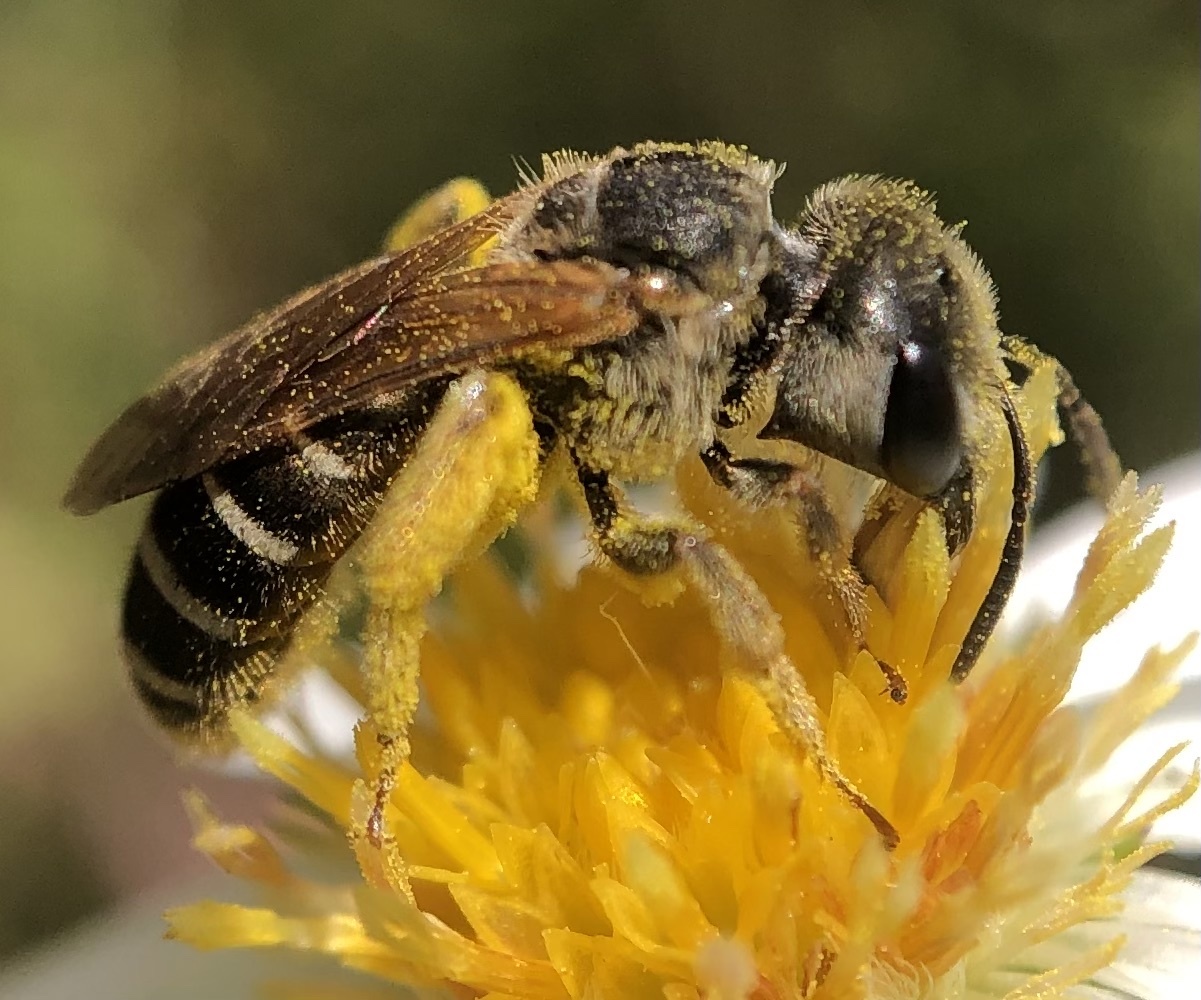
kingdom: Animalia
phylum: Arthropoda
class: Insecta
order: Hymenoptera
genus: Odontalictus
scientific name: Odontalictus
